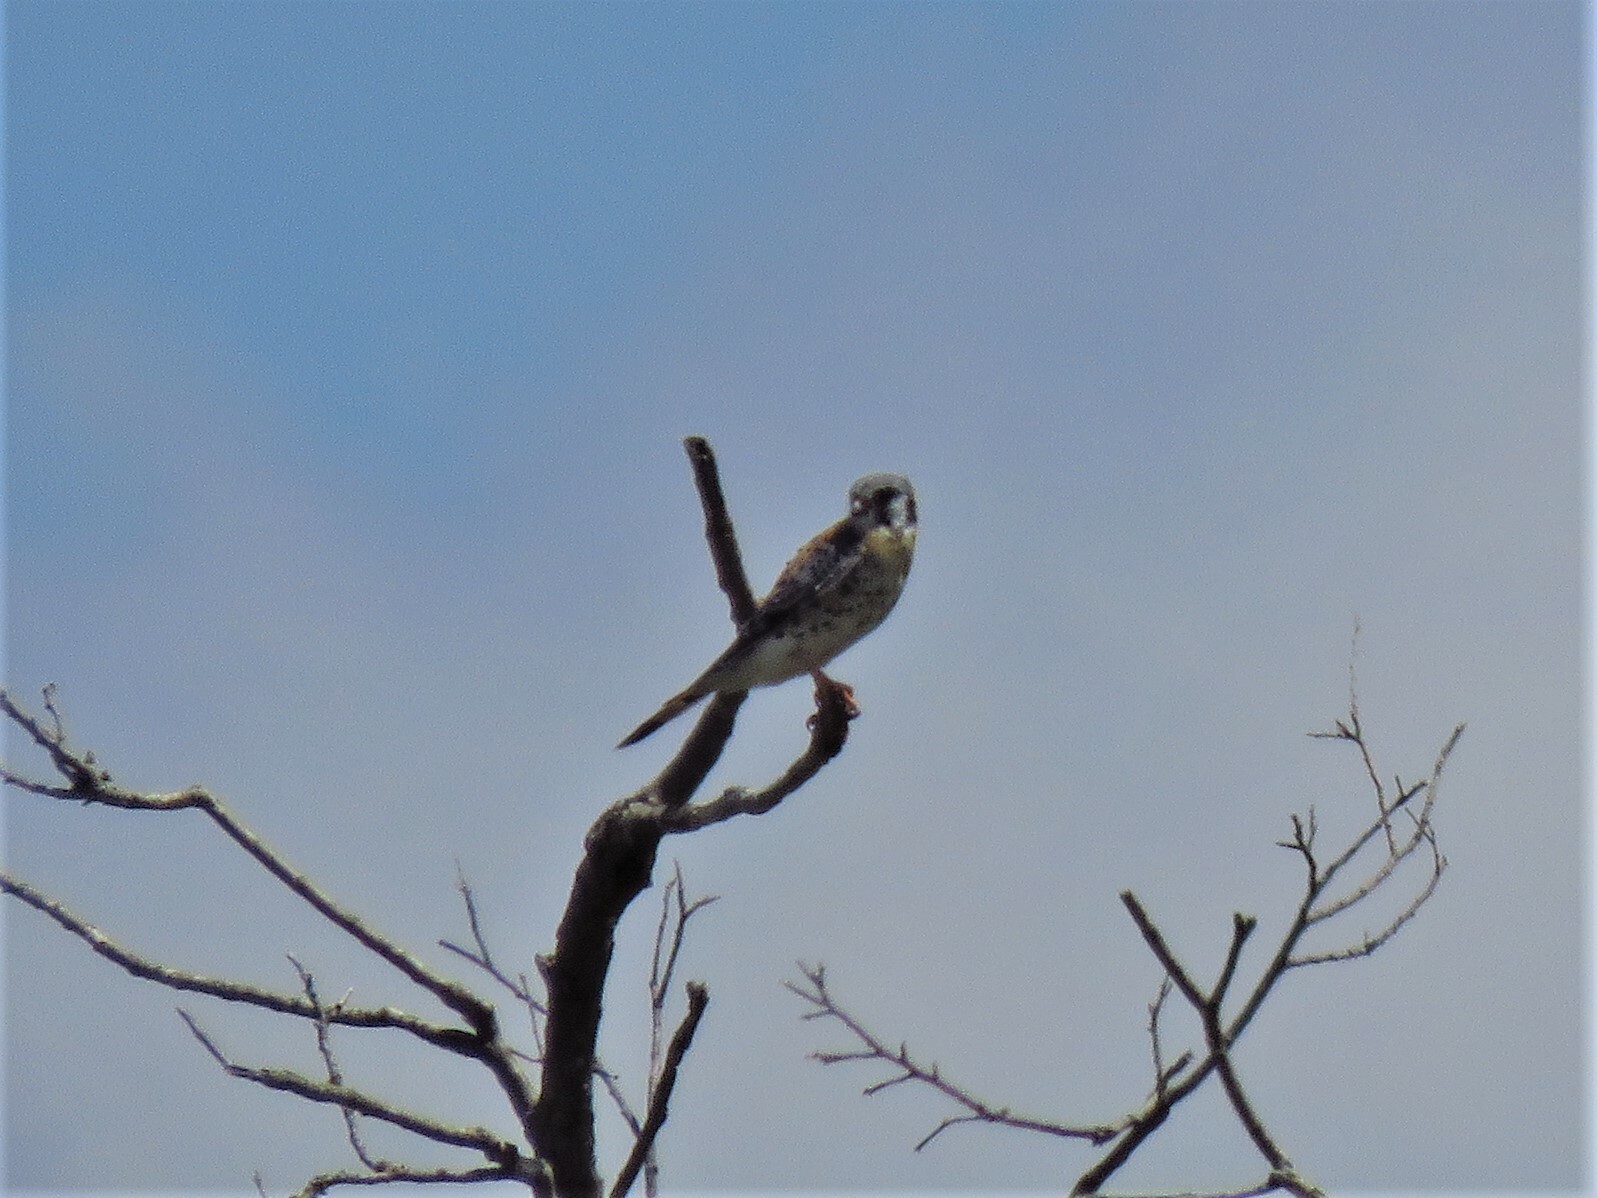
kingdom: Animalia
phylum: Chordata
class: Aves
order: Falconiformes
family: Falconidae
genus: Falco
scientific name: Falco sparverius
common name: American kestrel
